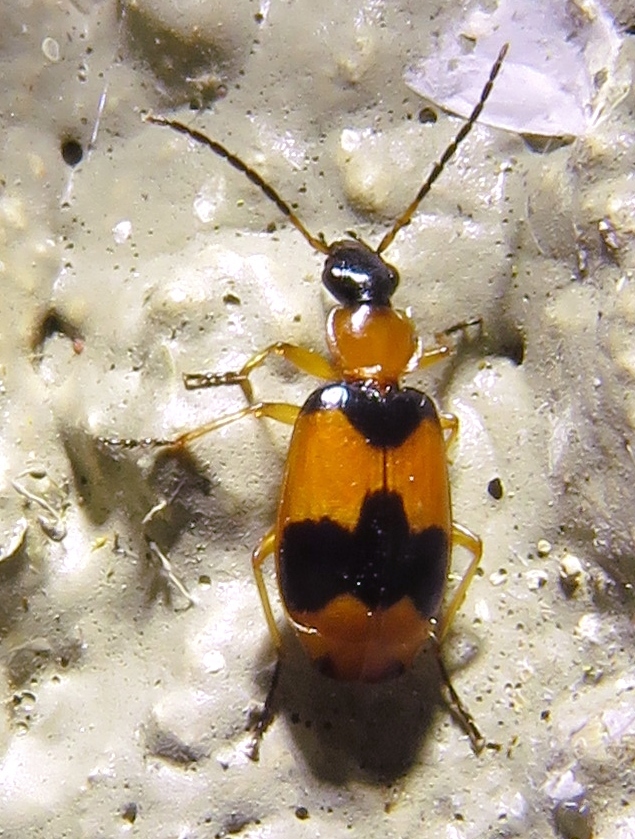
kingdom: Animalia
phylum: Arthropoda
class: Insecta
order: Coleoptera
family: Carabidae
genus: Lebia
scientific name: Lebia pulchella
